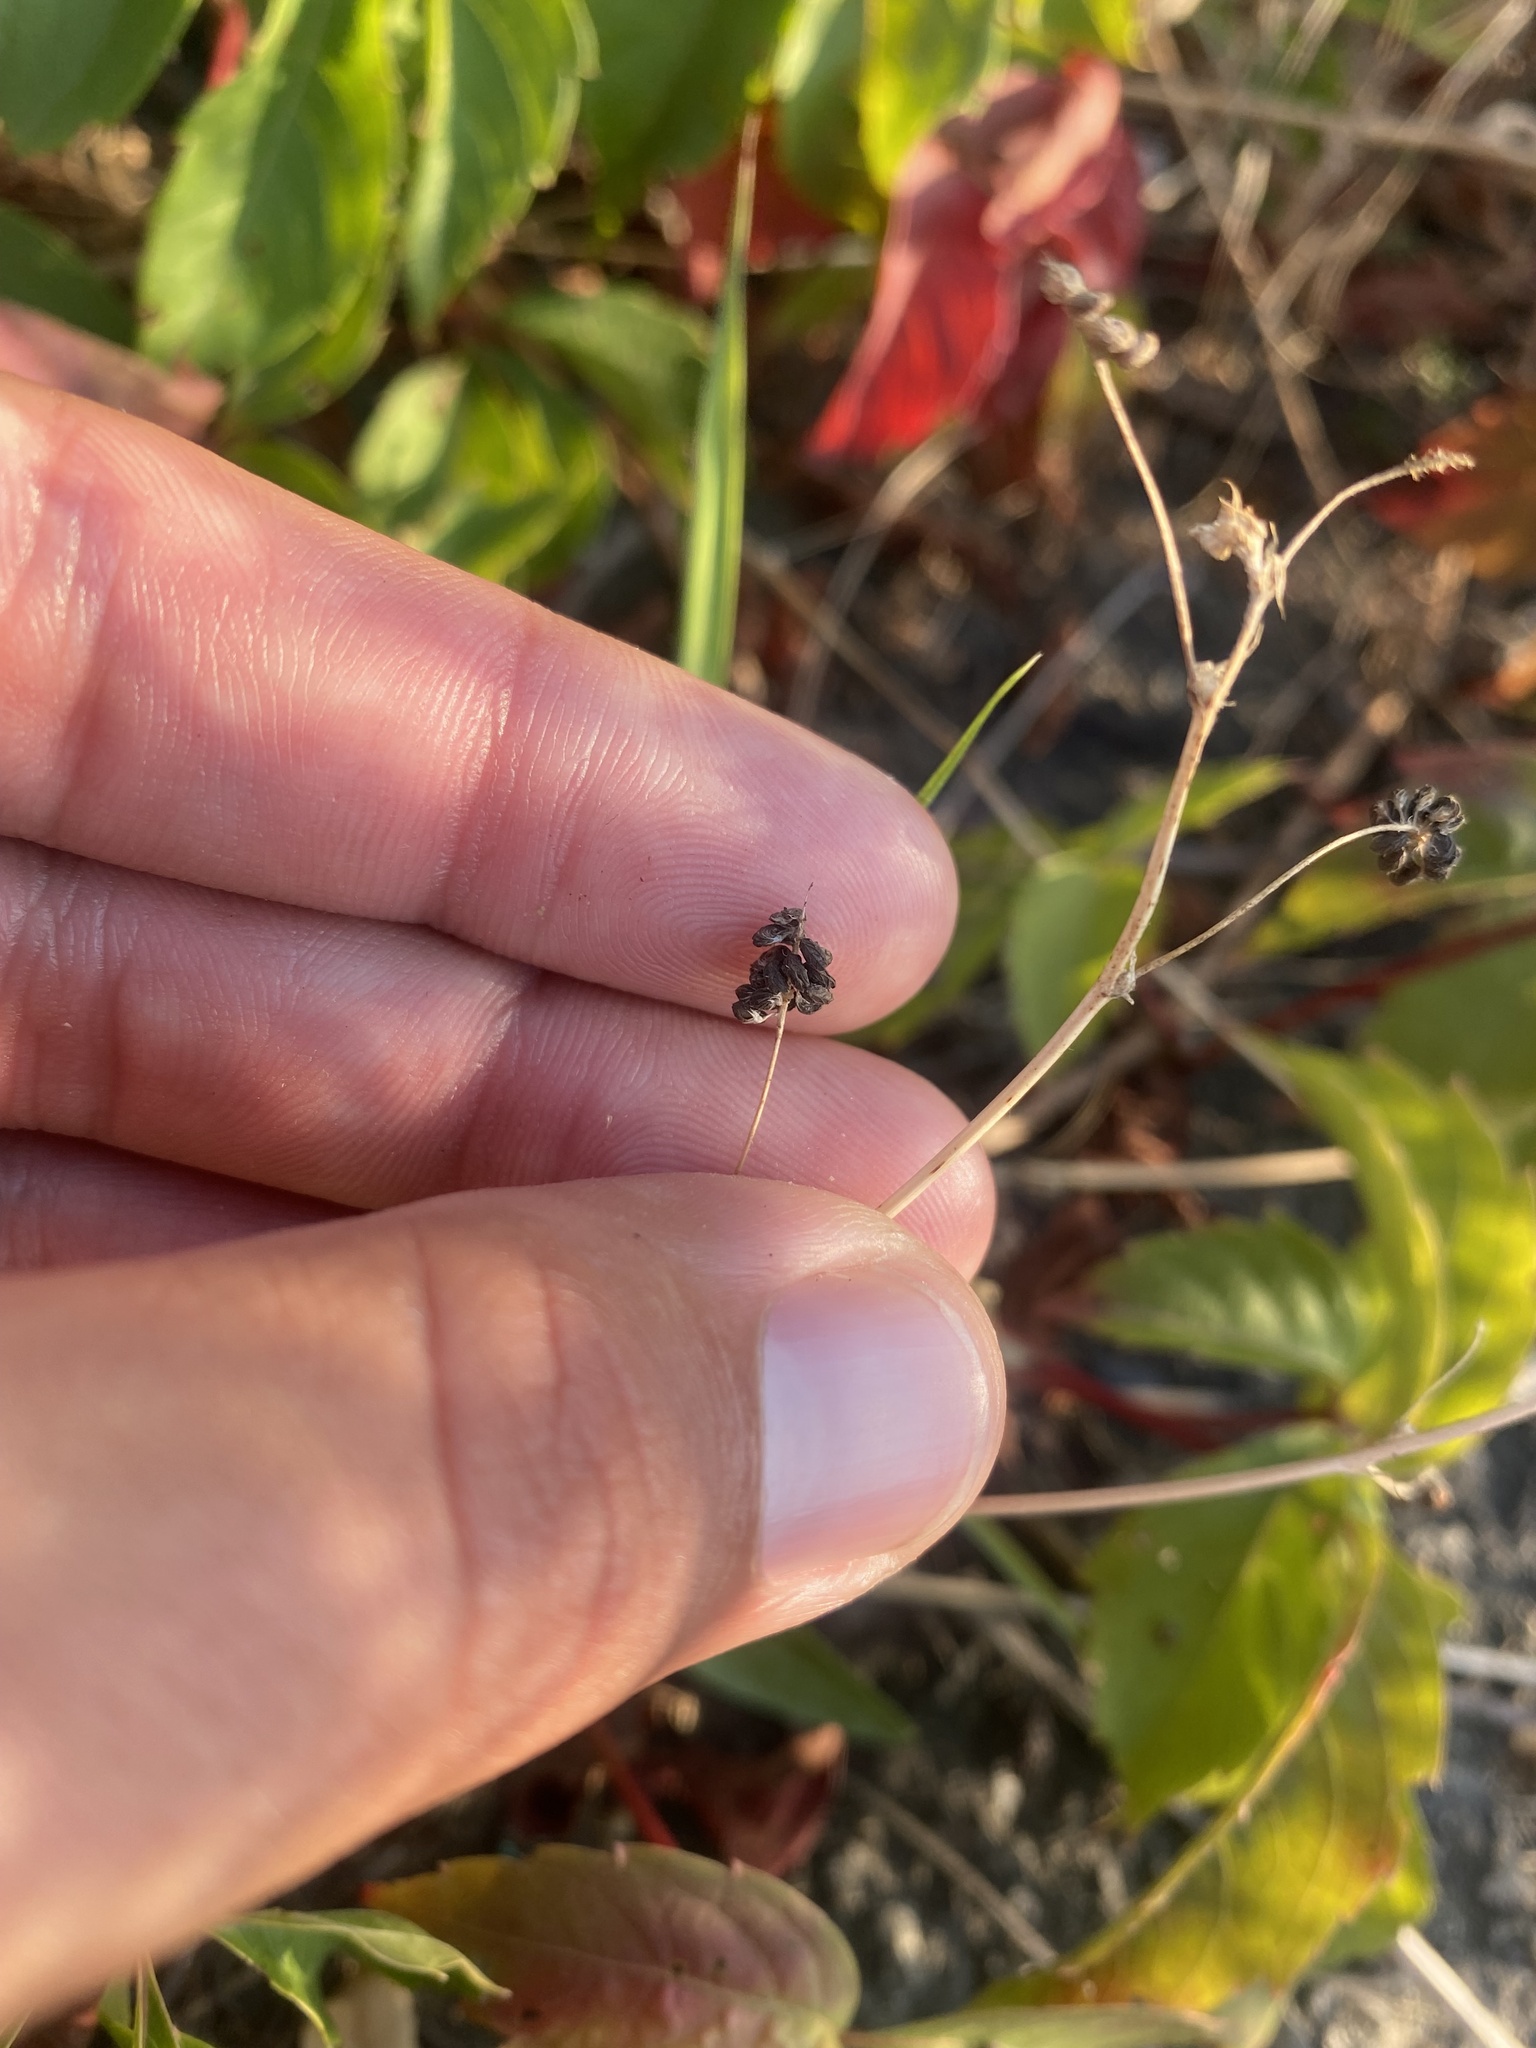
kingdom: Plantae
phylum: Tracheophyta
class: Magnoliopsida
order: Fabales
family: Fabaceae
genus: Medicago
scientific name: Medicago lupulina
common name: Black medick
